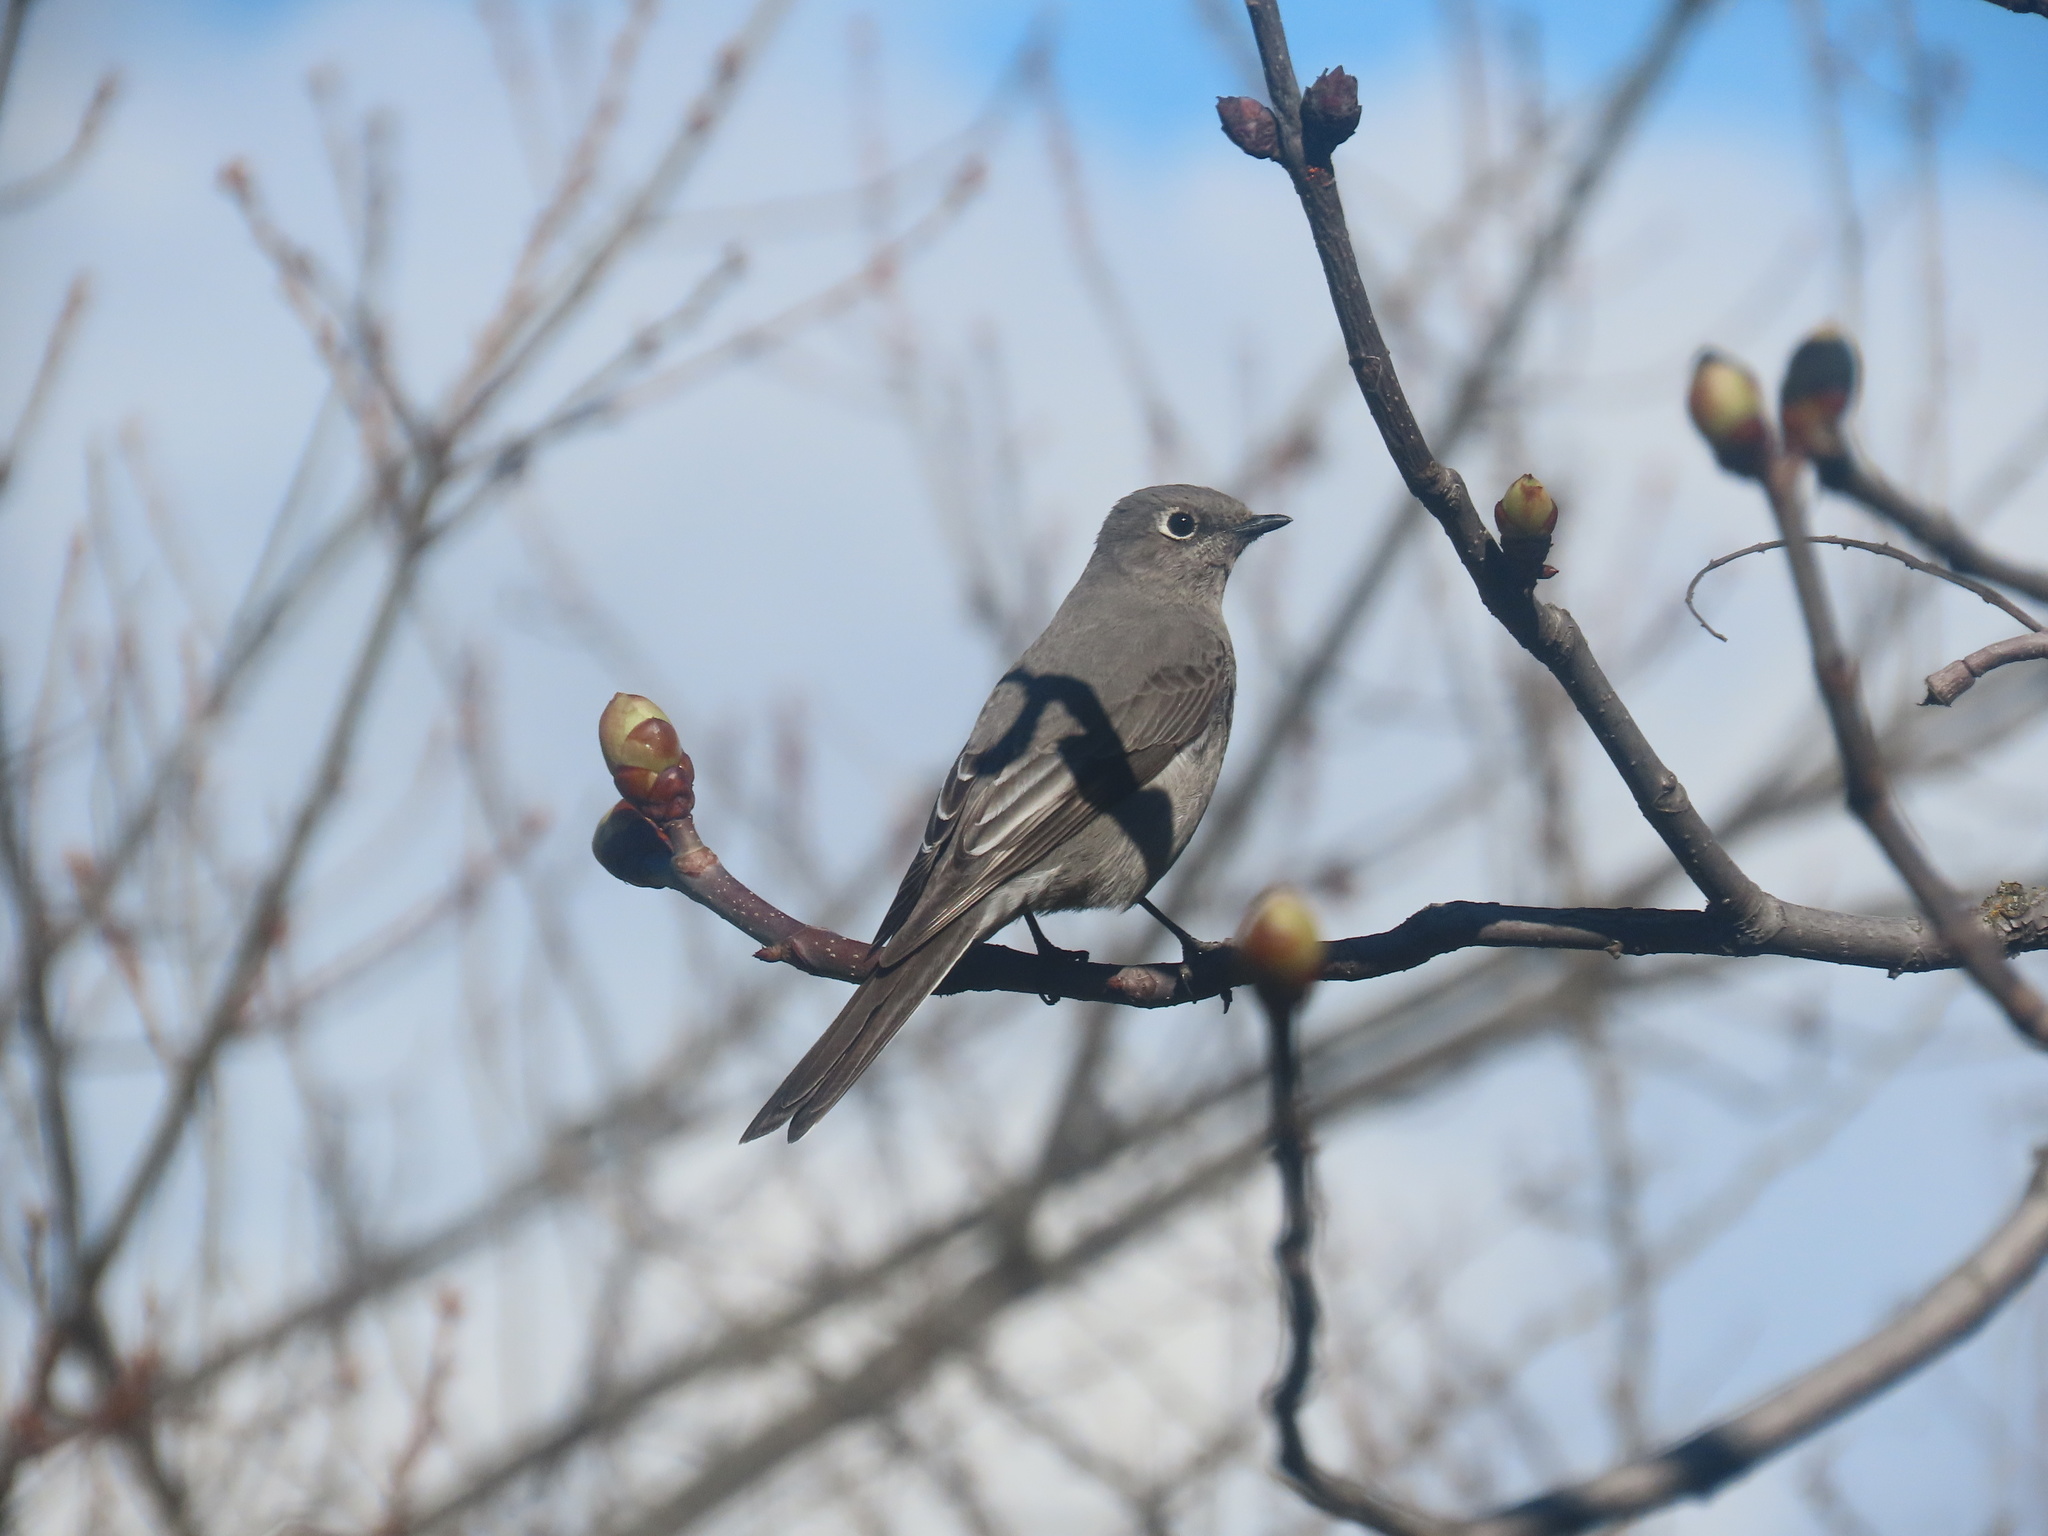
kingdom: Animalia
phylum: Chordata
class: Aves
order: Passeriformes
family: Turdidae
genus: Myadestes
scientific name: Myadestes townsendi
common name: Townsend's solitaire
